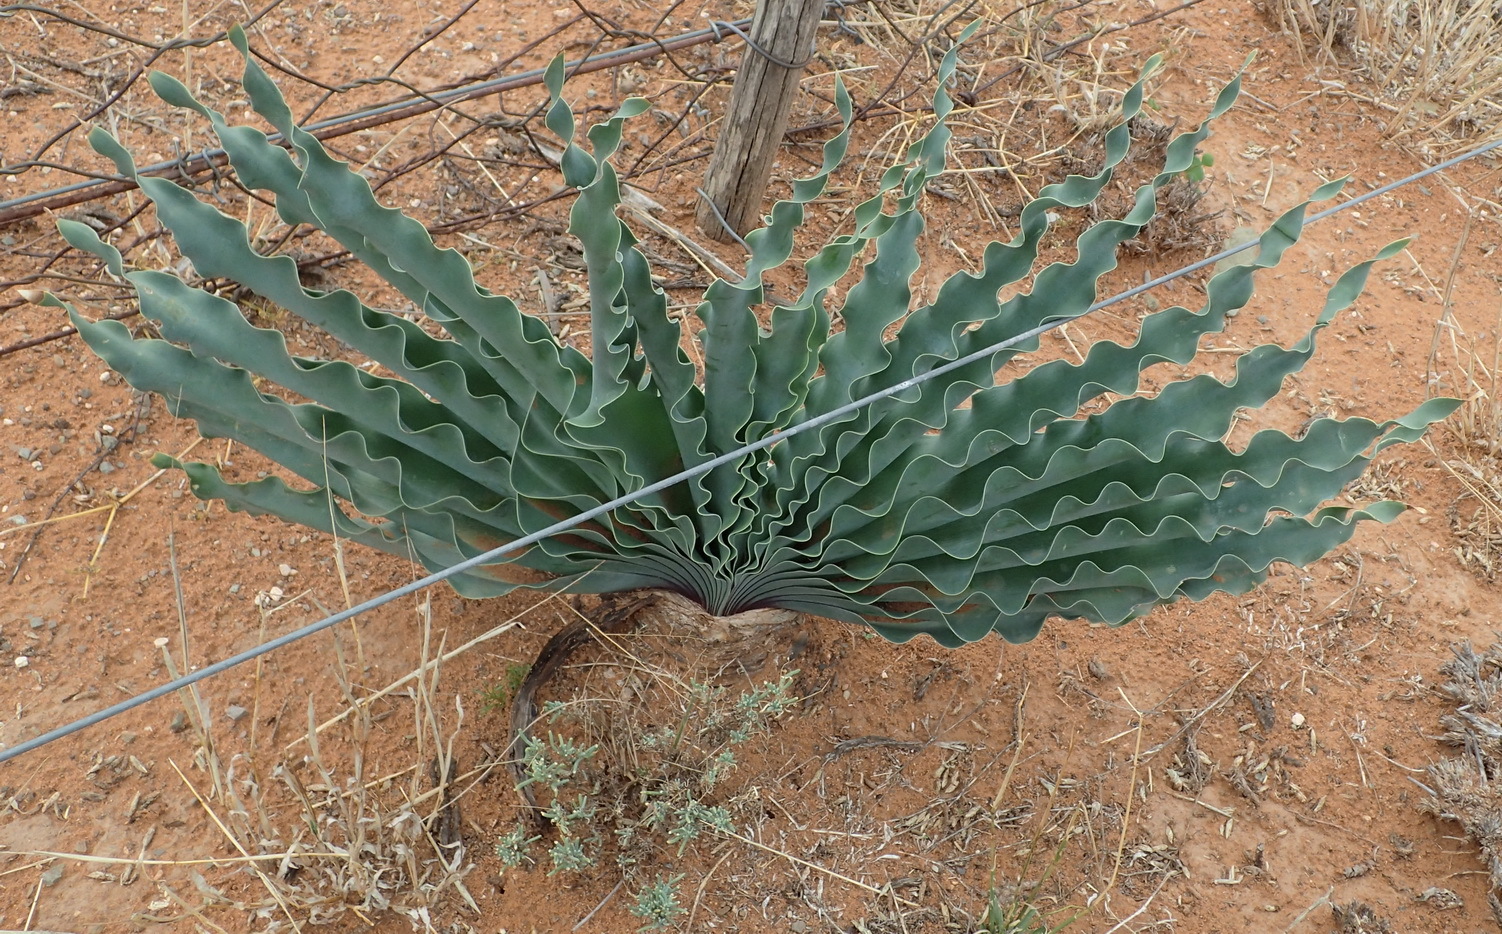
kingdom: Plantae
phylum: Tracheophyta
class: Liliopsida
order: Asparagales
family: Amaryllidaceae
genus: Boophone
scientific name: Boophone disticha
